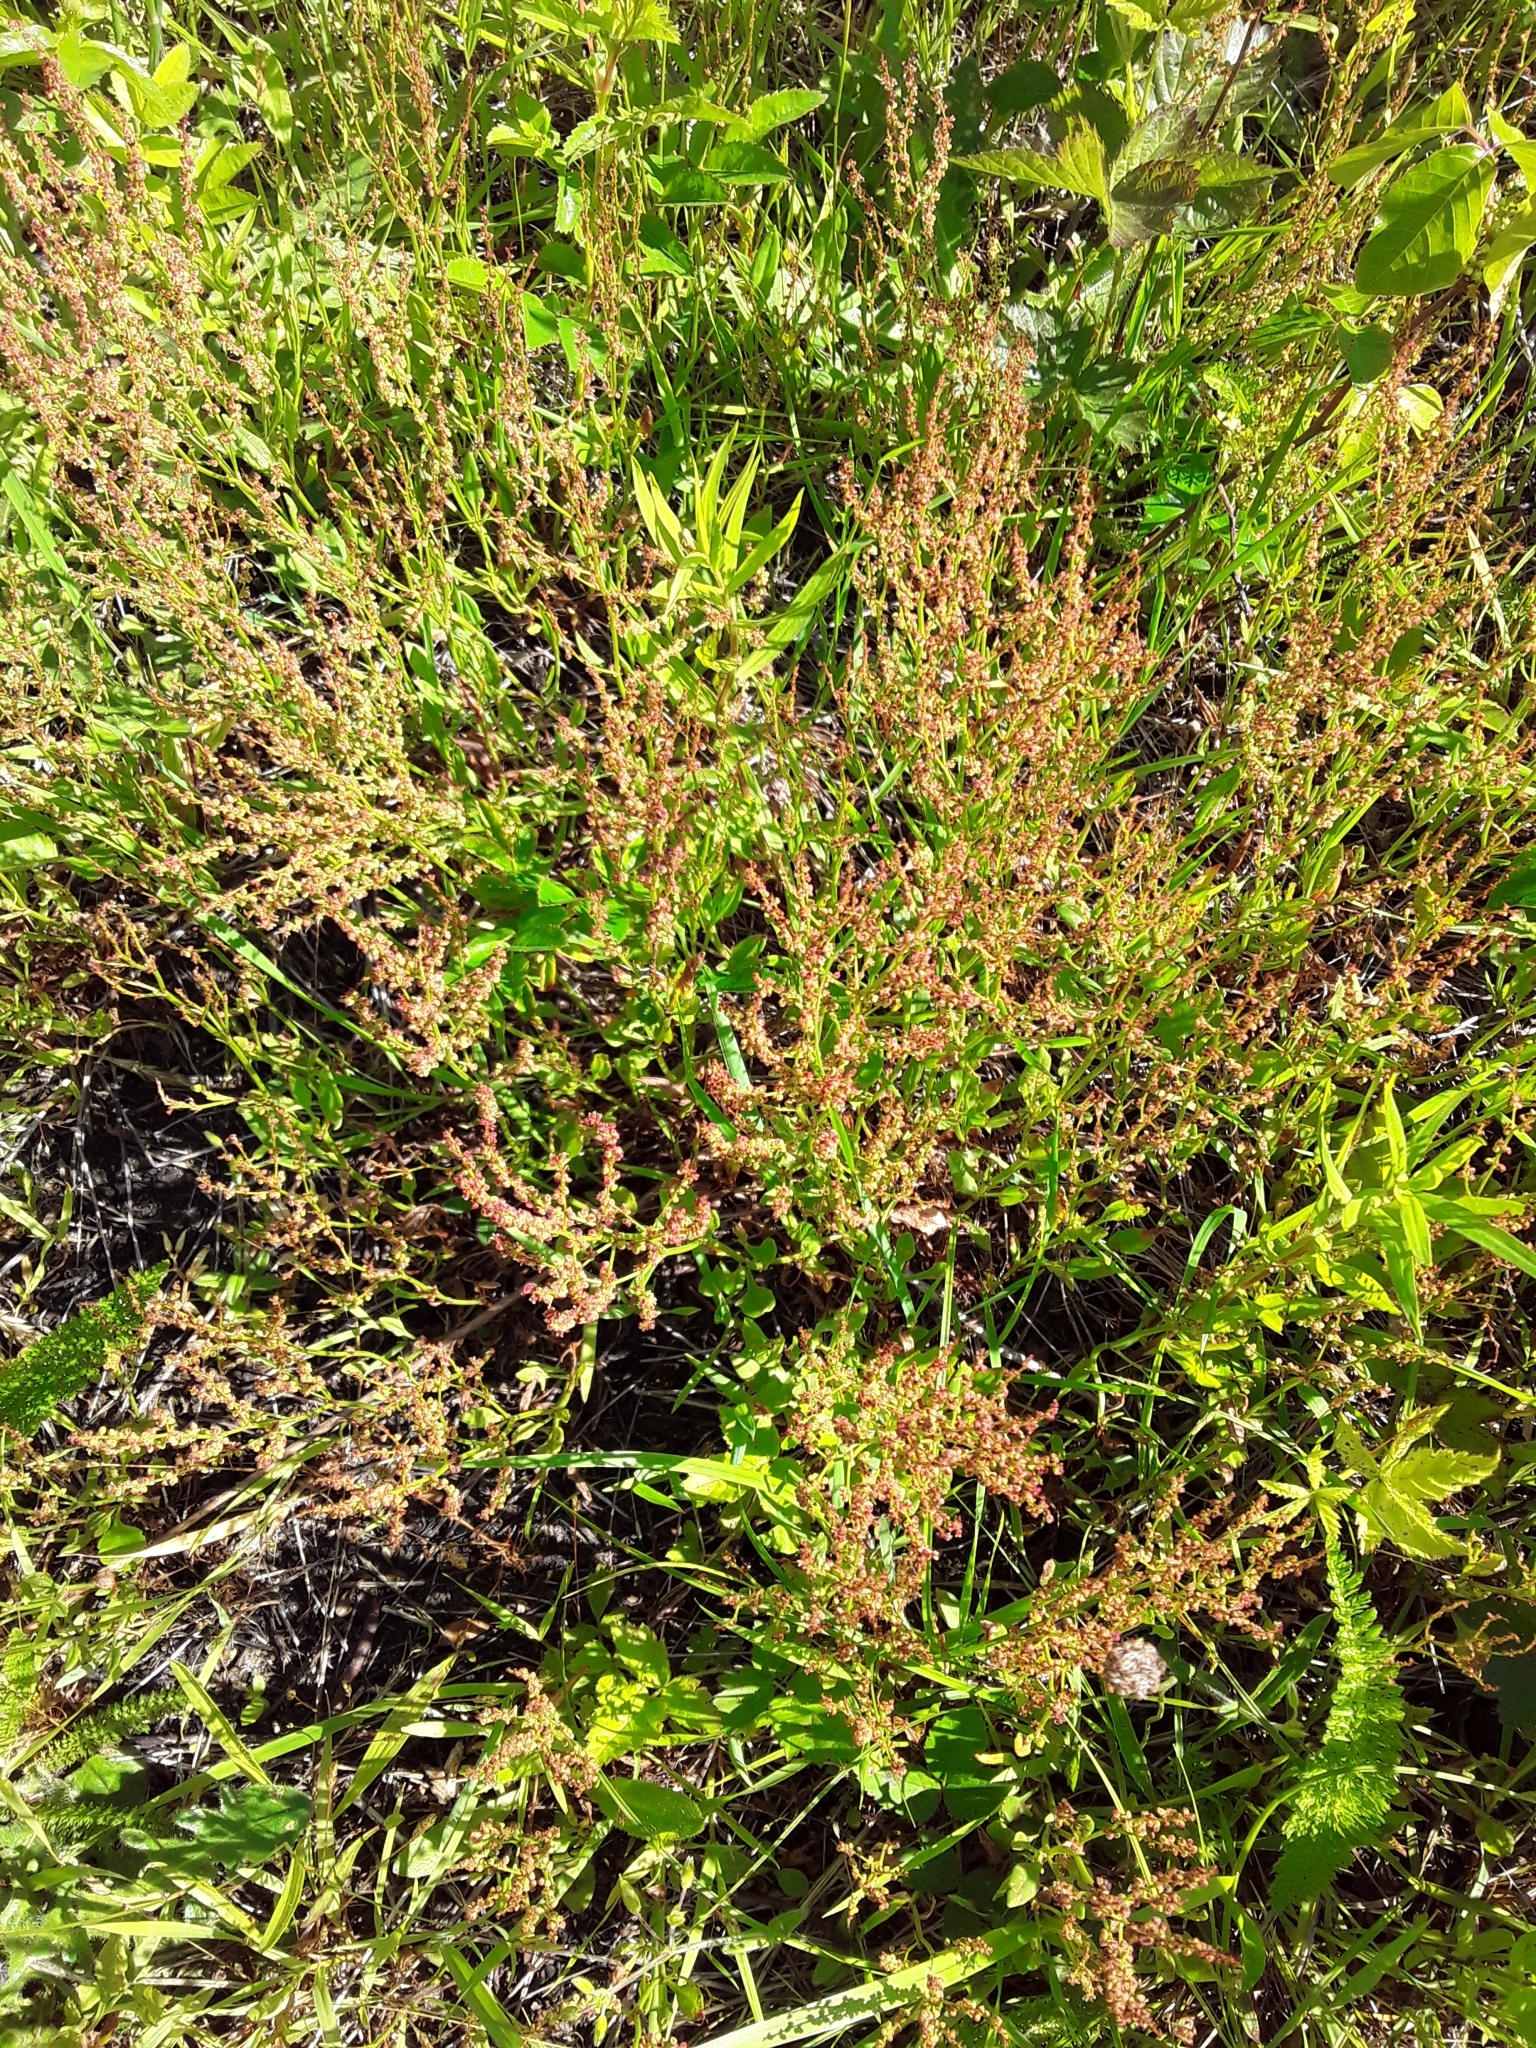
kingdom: Plantae
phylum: Tracheophyta
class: Magnoliopsida
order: Caryophyllales
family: Polygonaceae
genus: Rumex
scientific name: Rumex acetosella
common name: Common sheep sorrel
